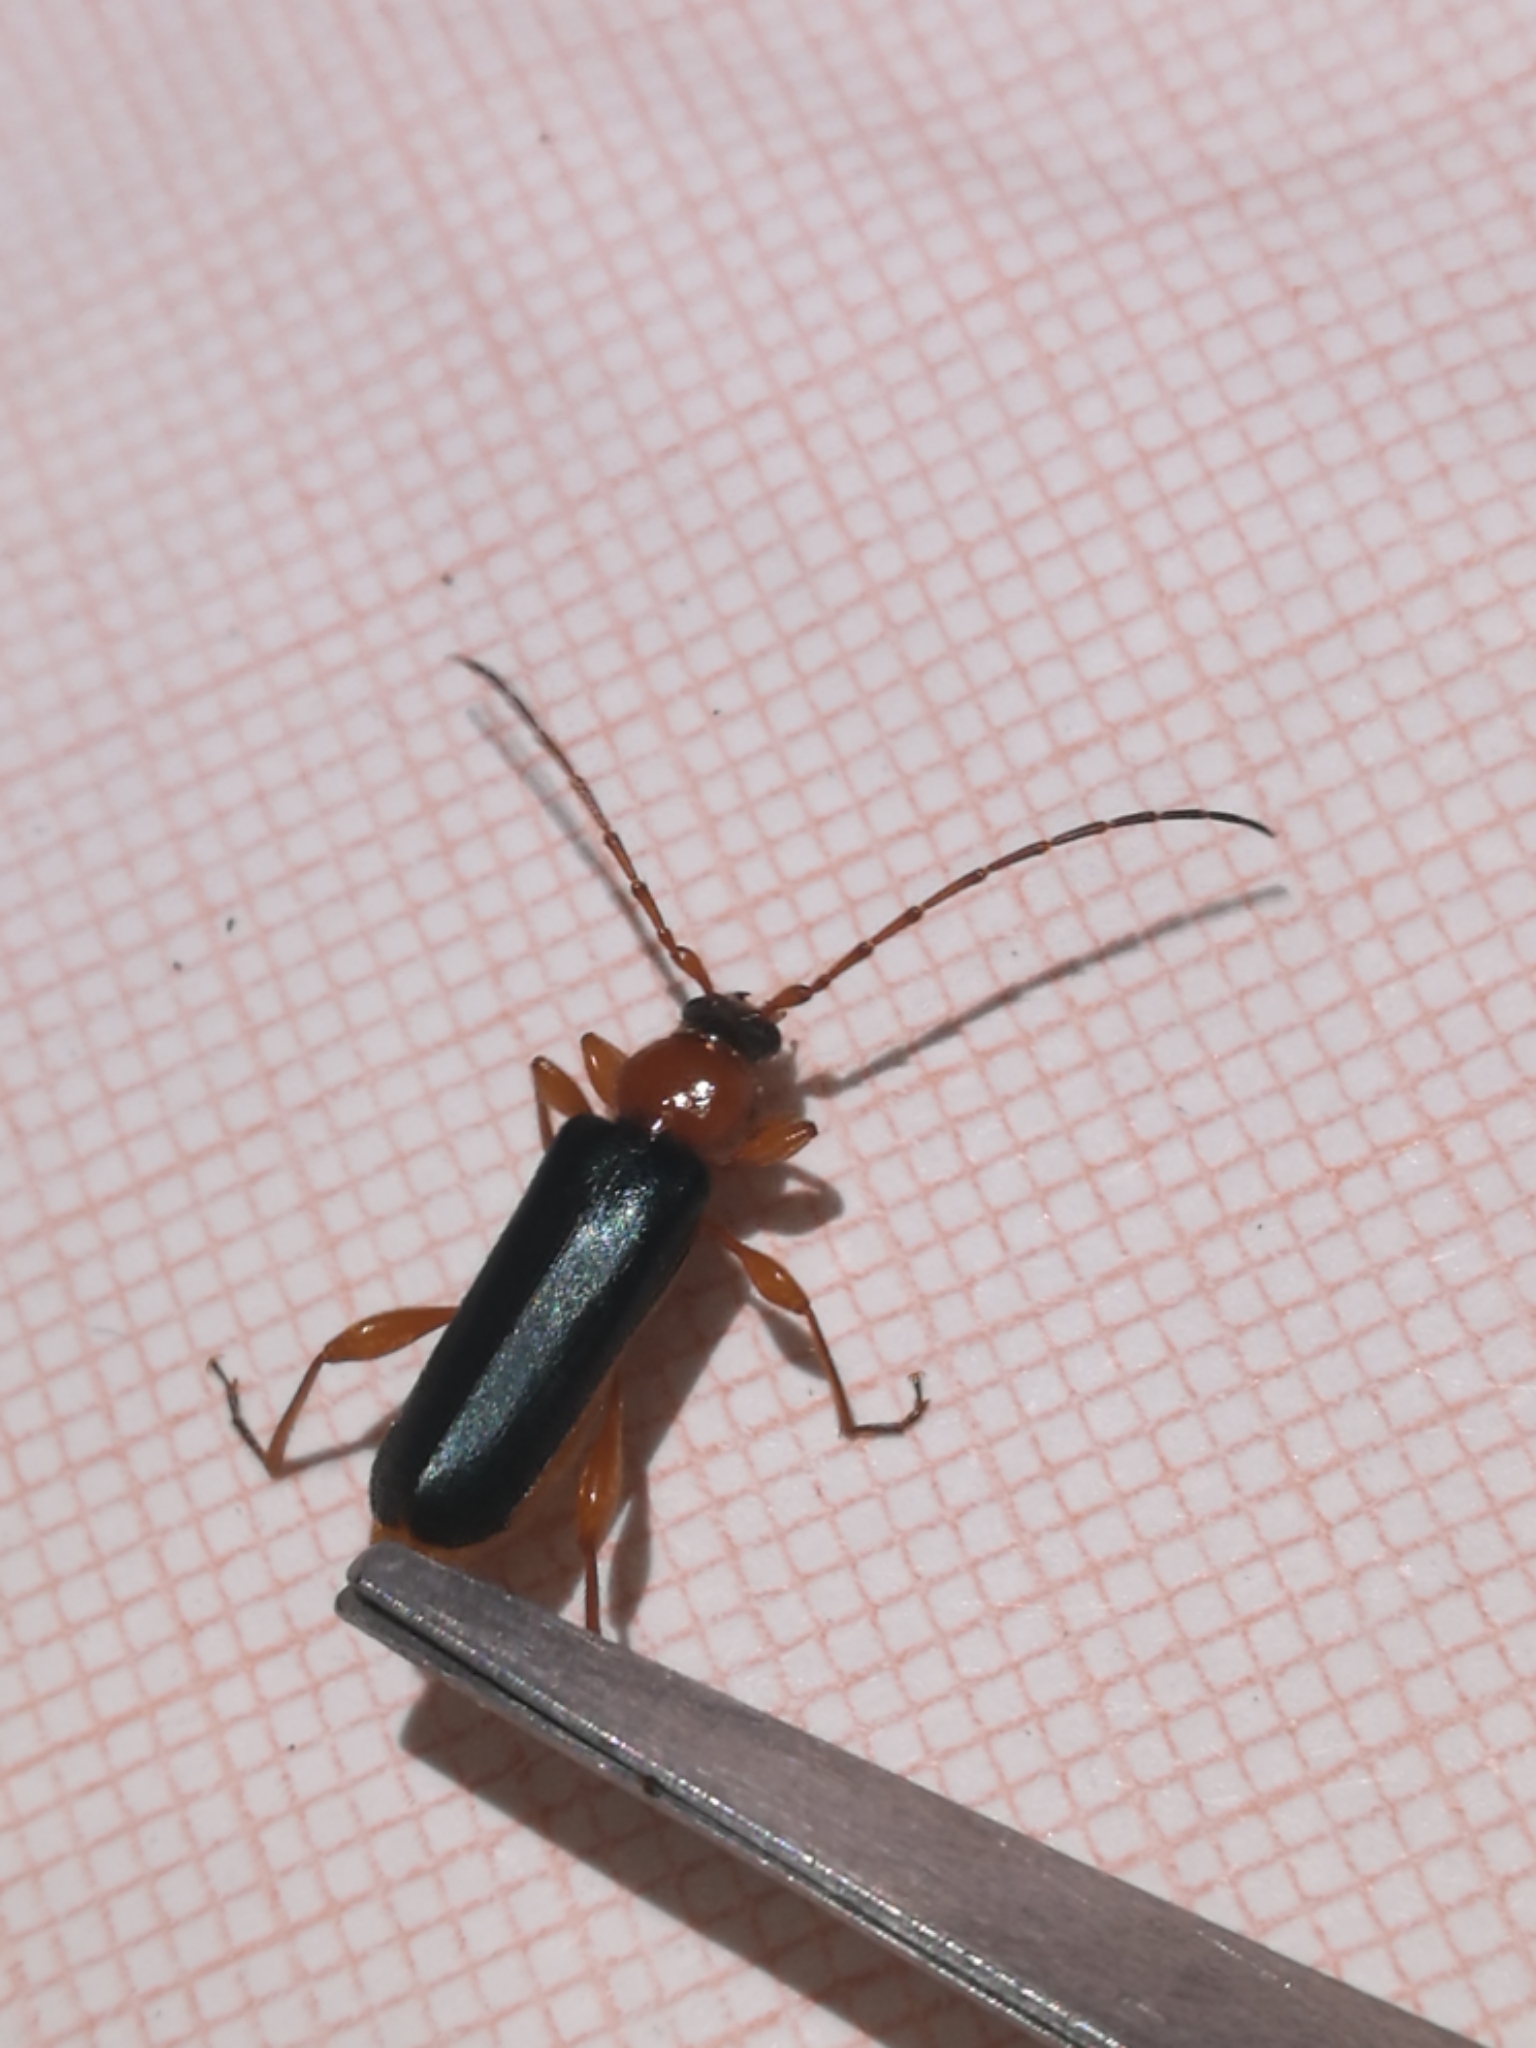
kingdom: Animalia
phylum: Arthropoda
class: Insecta
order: Coleoptera
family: Cerambycidae
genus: Phymatodes
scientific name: Phymatodes testaceus
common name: Long-horned beetle
